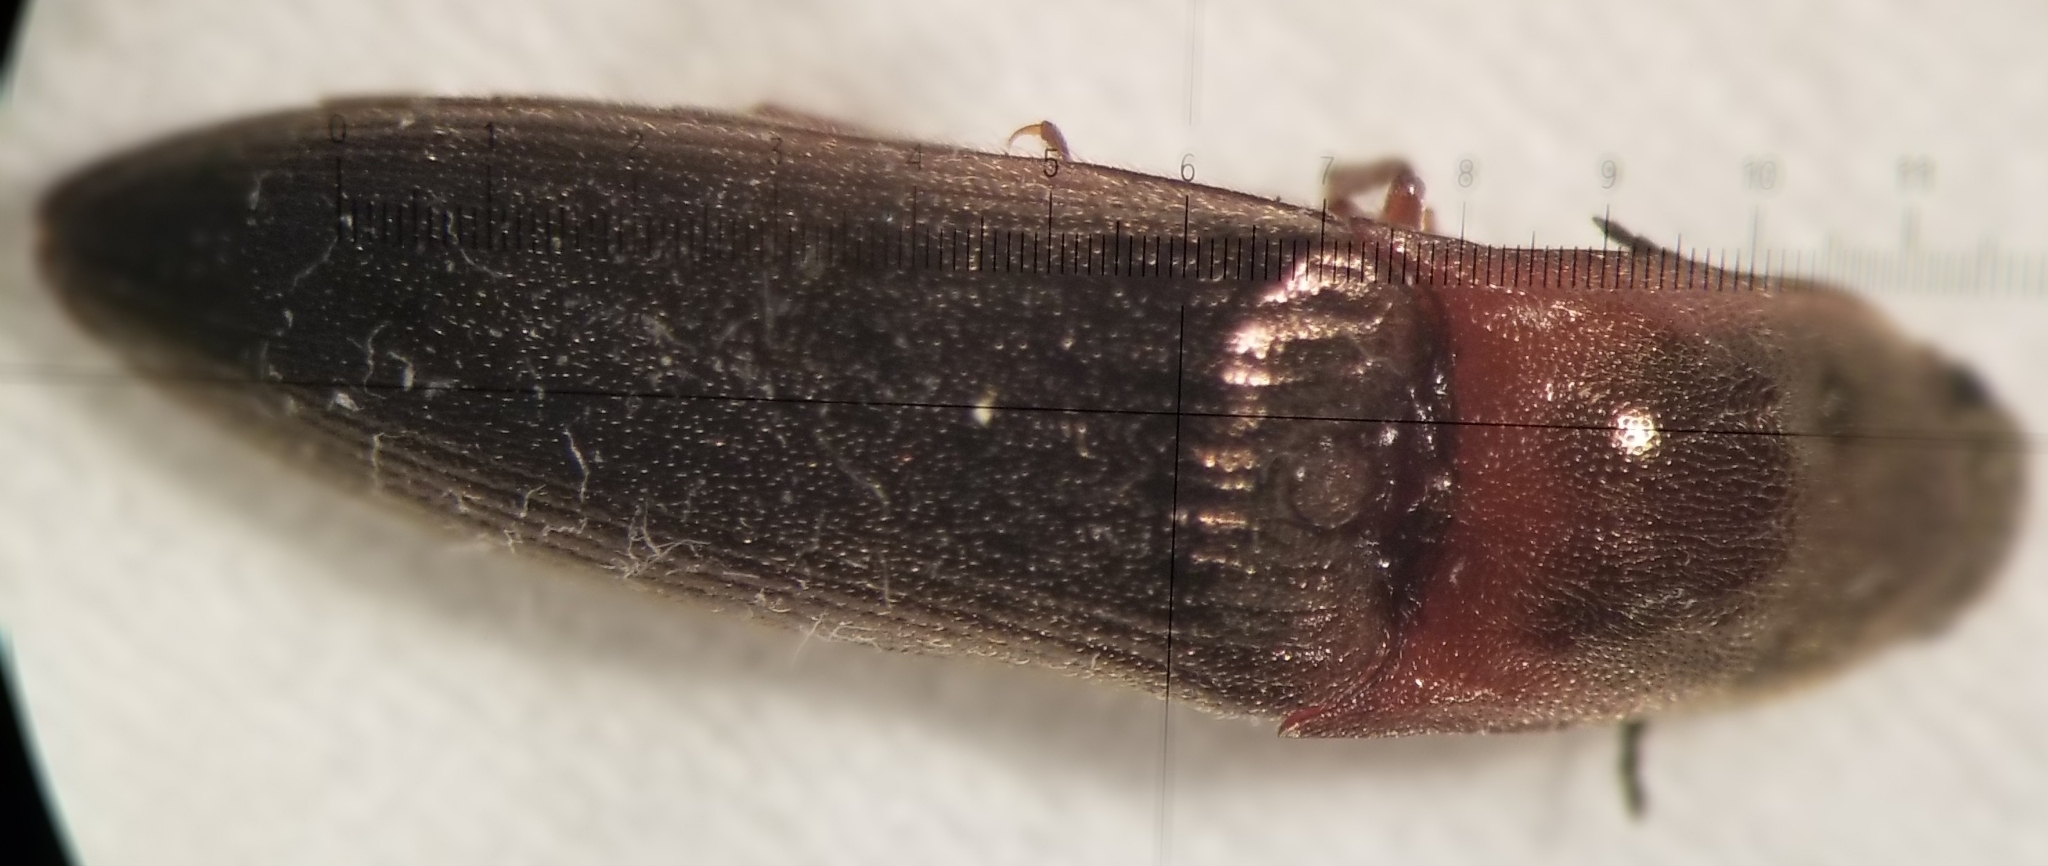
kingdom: Animalia
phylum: Arthropoda
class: Insecta
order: Coleoptera
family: Elateridae
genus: Sericus
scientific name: Sericus viridanus
